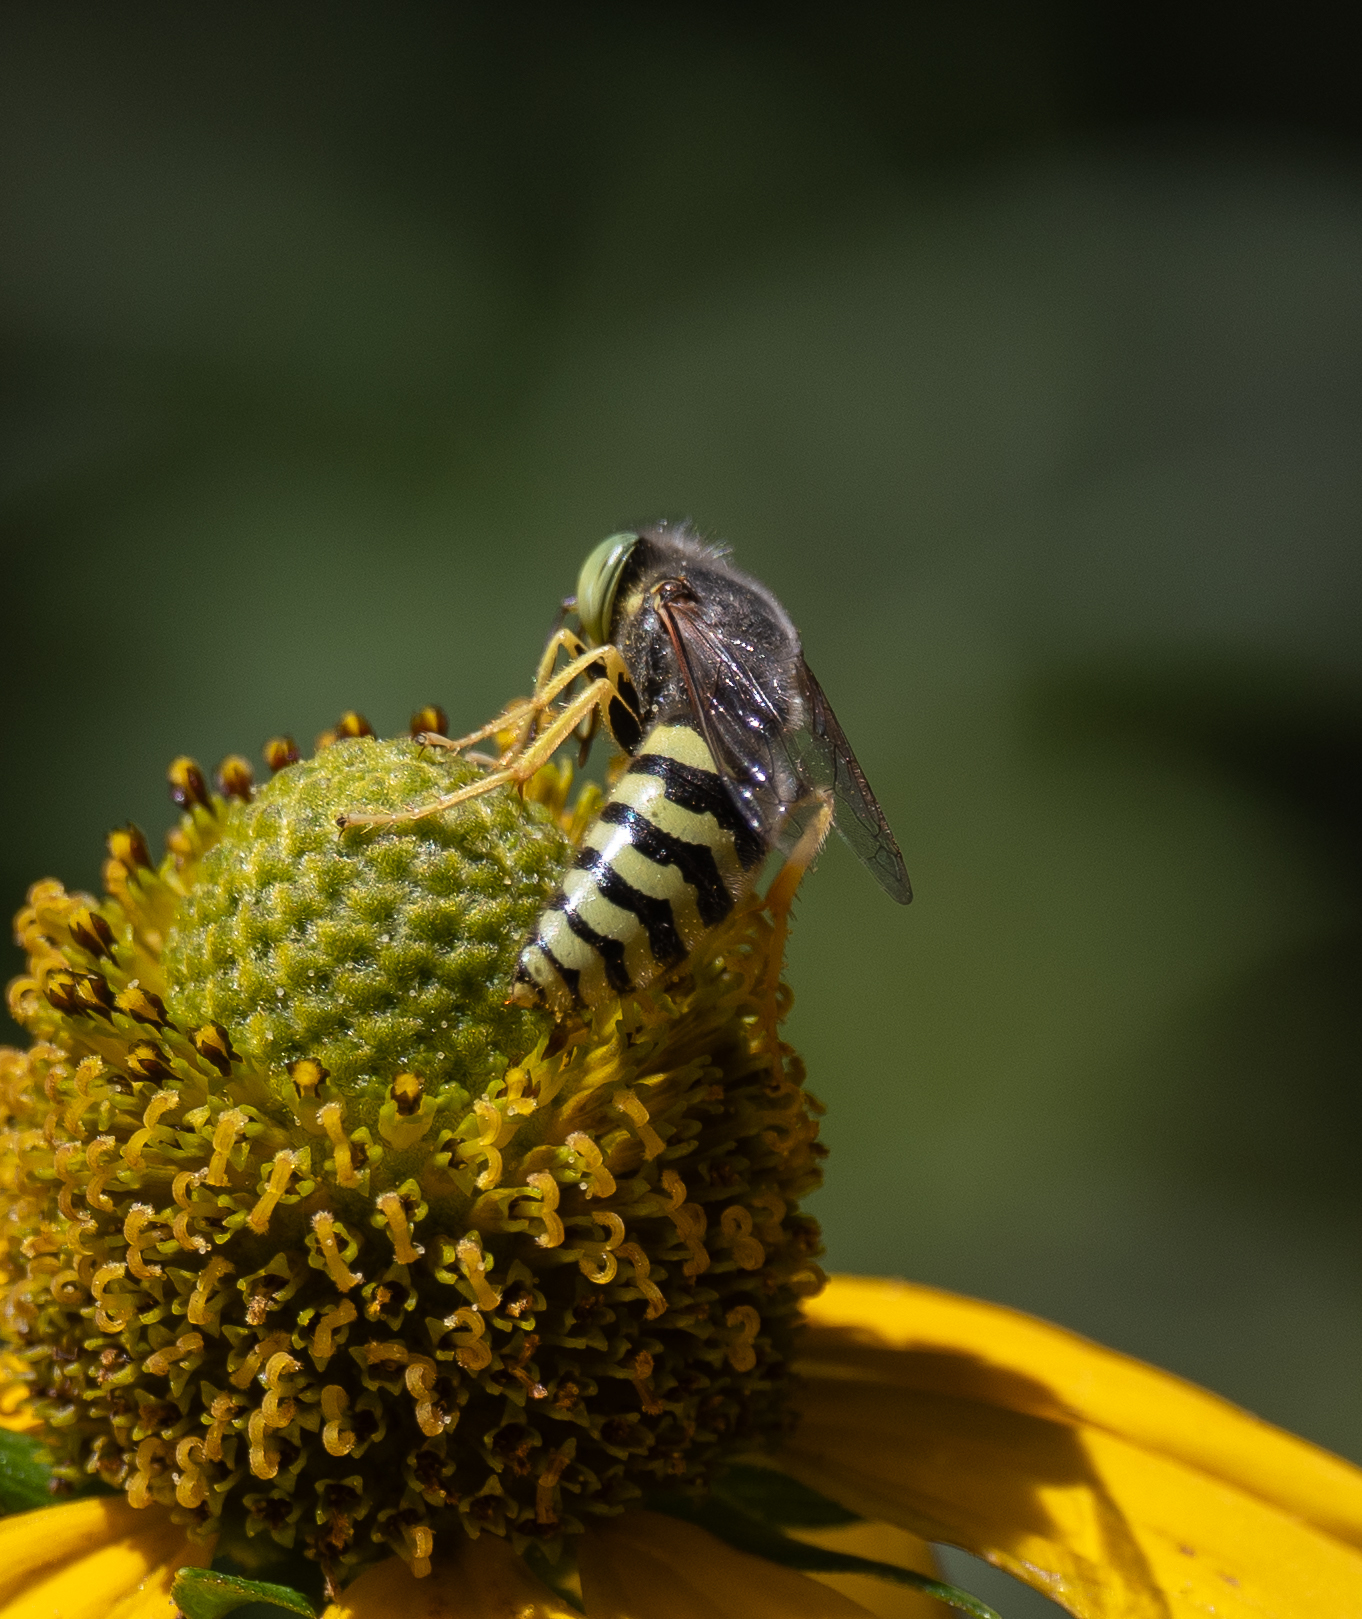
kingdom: Animalia
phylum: Arthropoda
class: Insecta
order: Hymenoptera
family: Crabronidae
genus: Bembix
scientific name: Bembix americana
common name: American sand wasp
